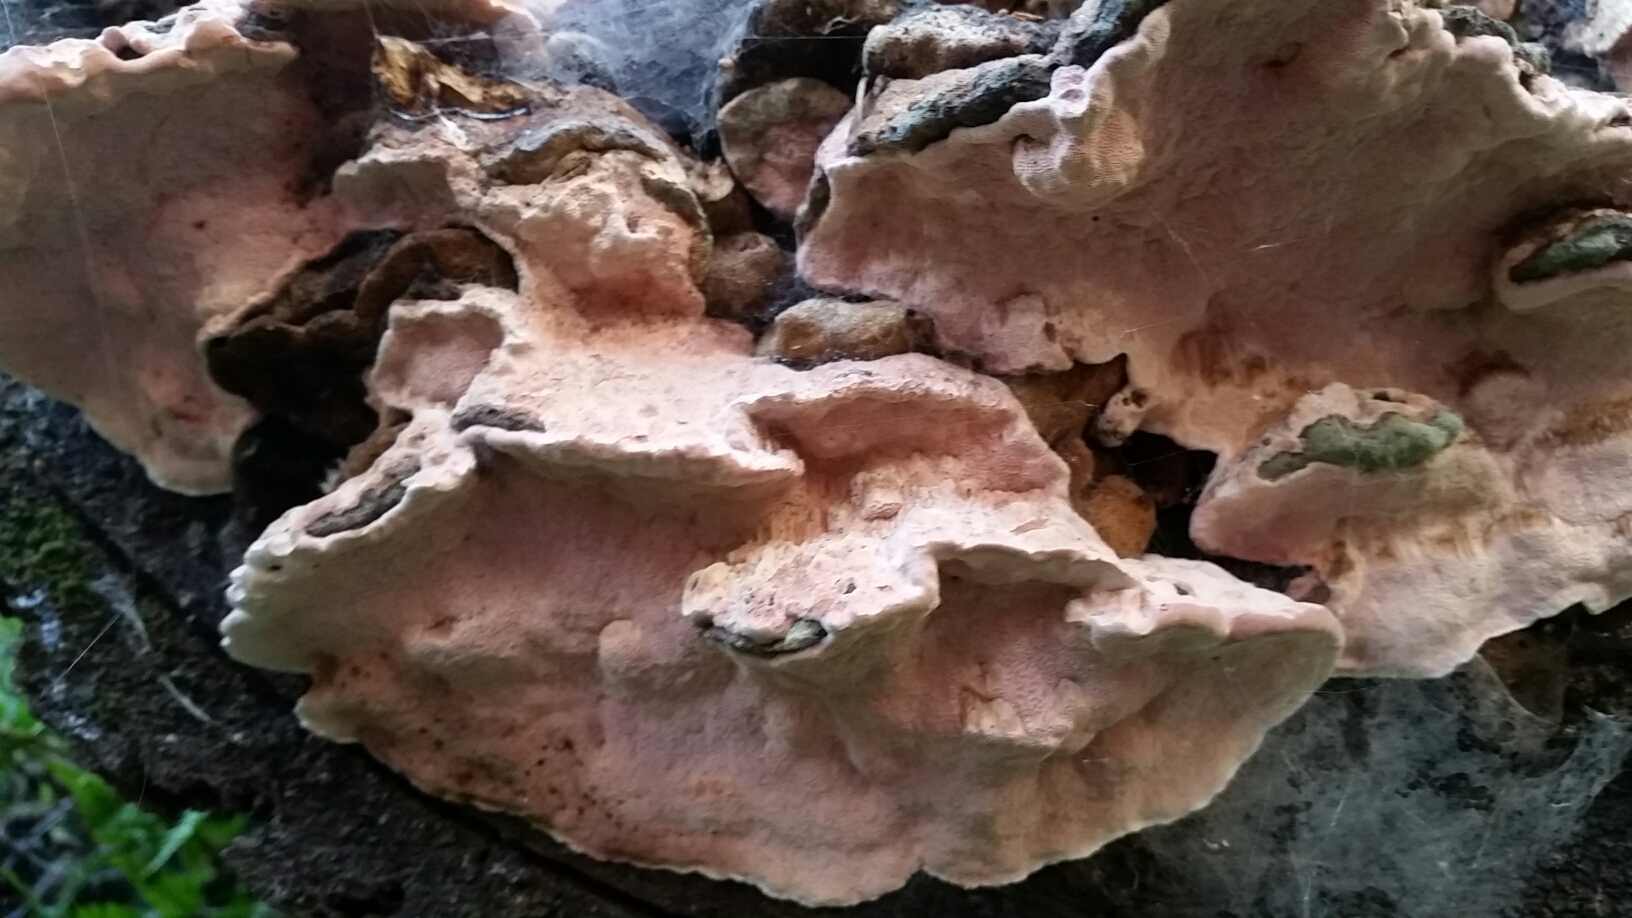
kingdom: Fungi
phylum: Basidiomycota
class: Agaricomycetes
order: Polyporales
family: Fomitopsidaceae
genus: Rhodofomes
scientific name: Rhodofomes cajanderi
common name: Rosy conk
